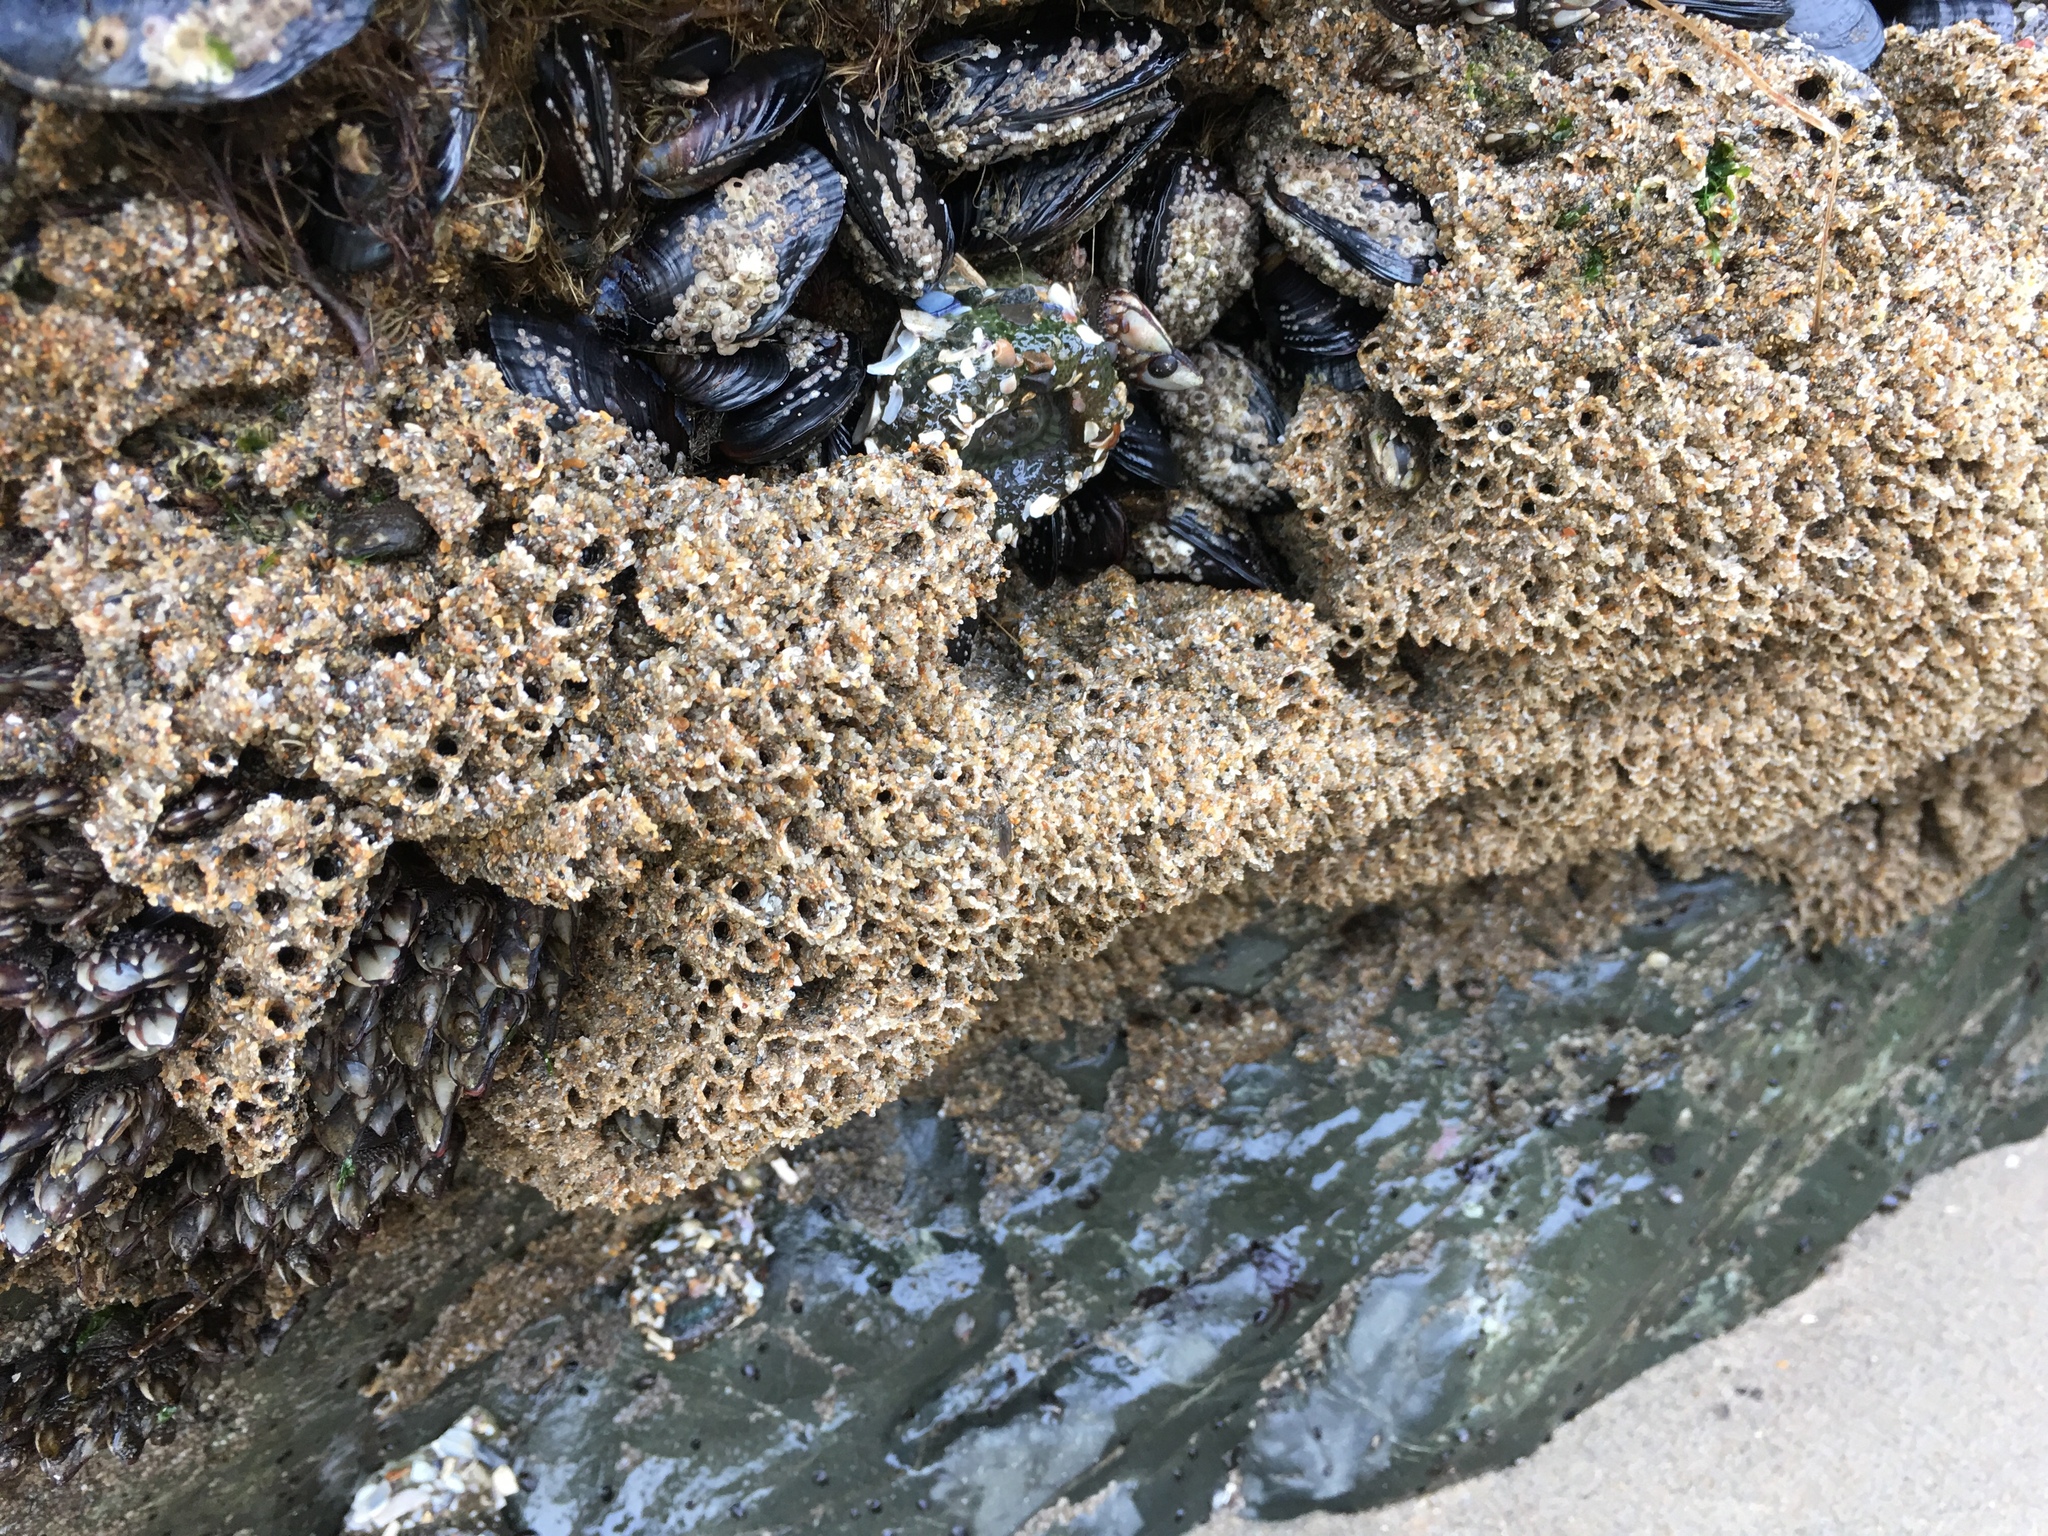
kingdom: Animalia
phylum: Annelida
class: Polychaeta
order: Sabellida
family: Sabellariidae
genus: Phragmatopoma
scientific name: Phragmatopoma californica
